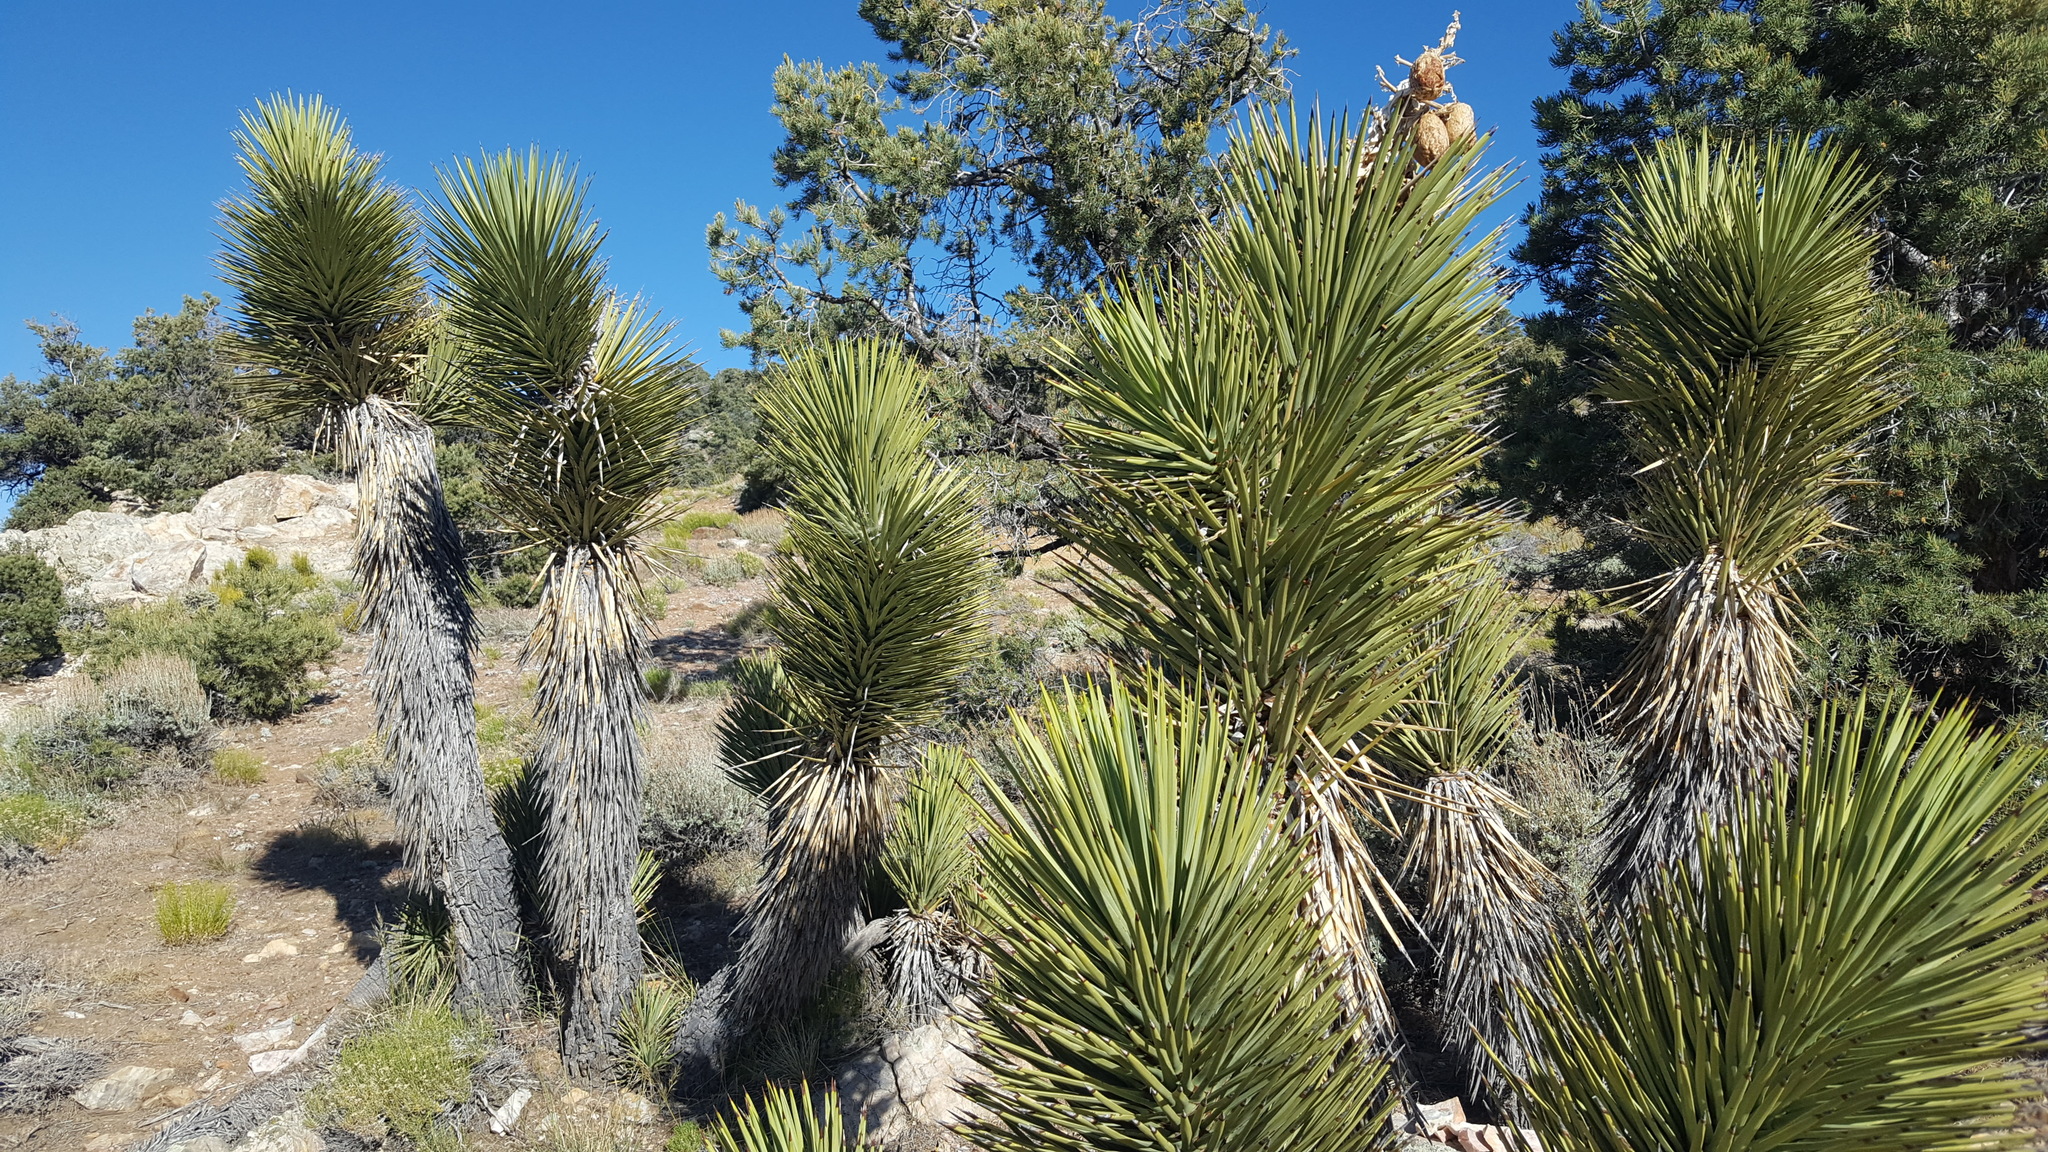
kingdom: Plantae
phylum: Tracheophyta
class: Liliopsida
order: Asparagales
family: Asparagaceae
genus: Yucca
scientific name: Yucca brevifolia
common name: Joshua tree
